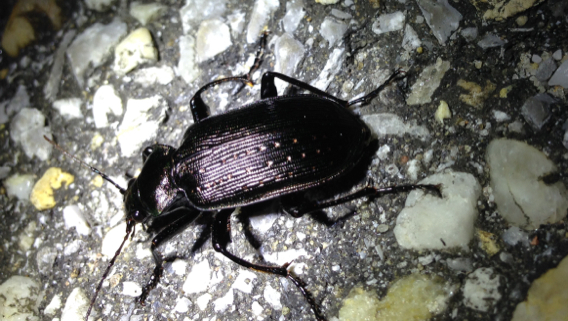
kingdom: Animalia
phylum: Arthropoda
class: Insecta
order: Coleoptera
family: Carabidae
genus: Calosoma
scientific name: Calosoma sayi
